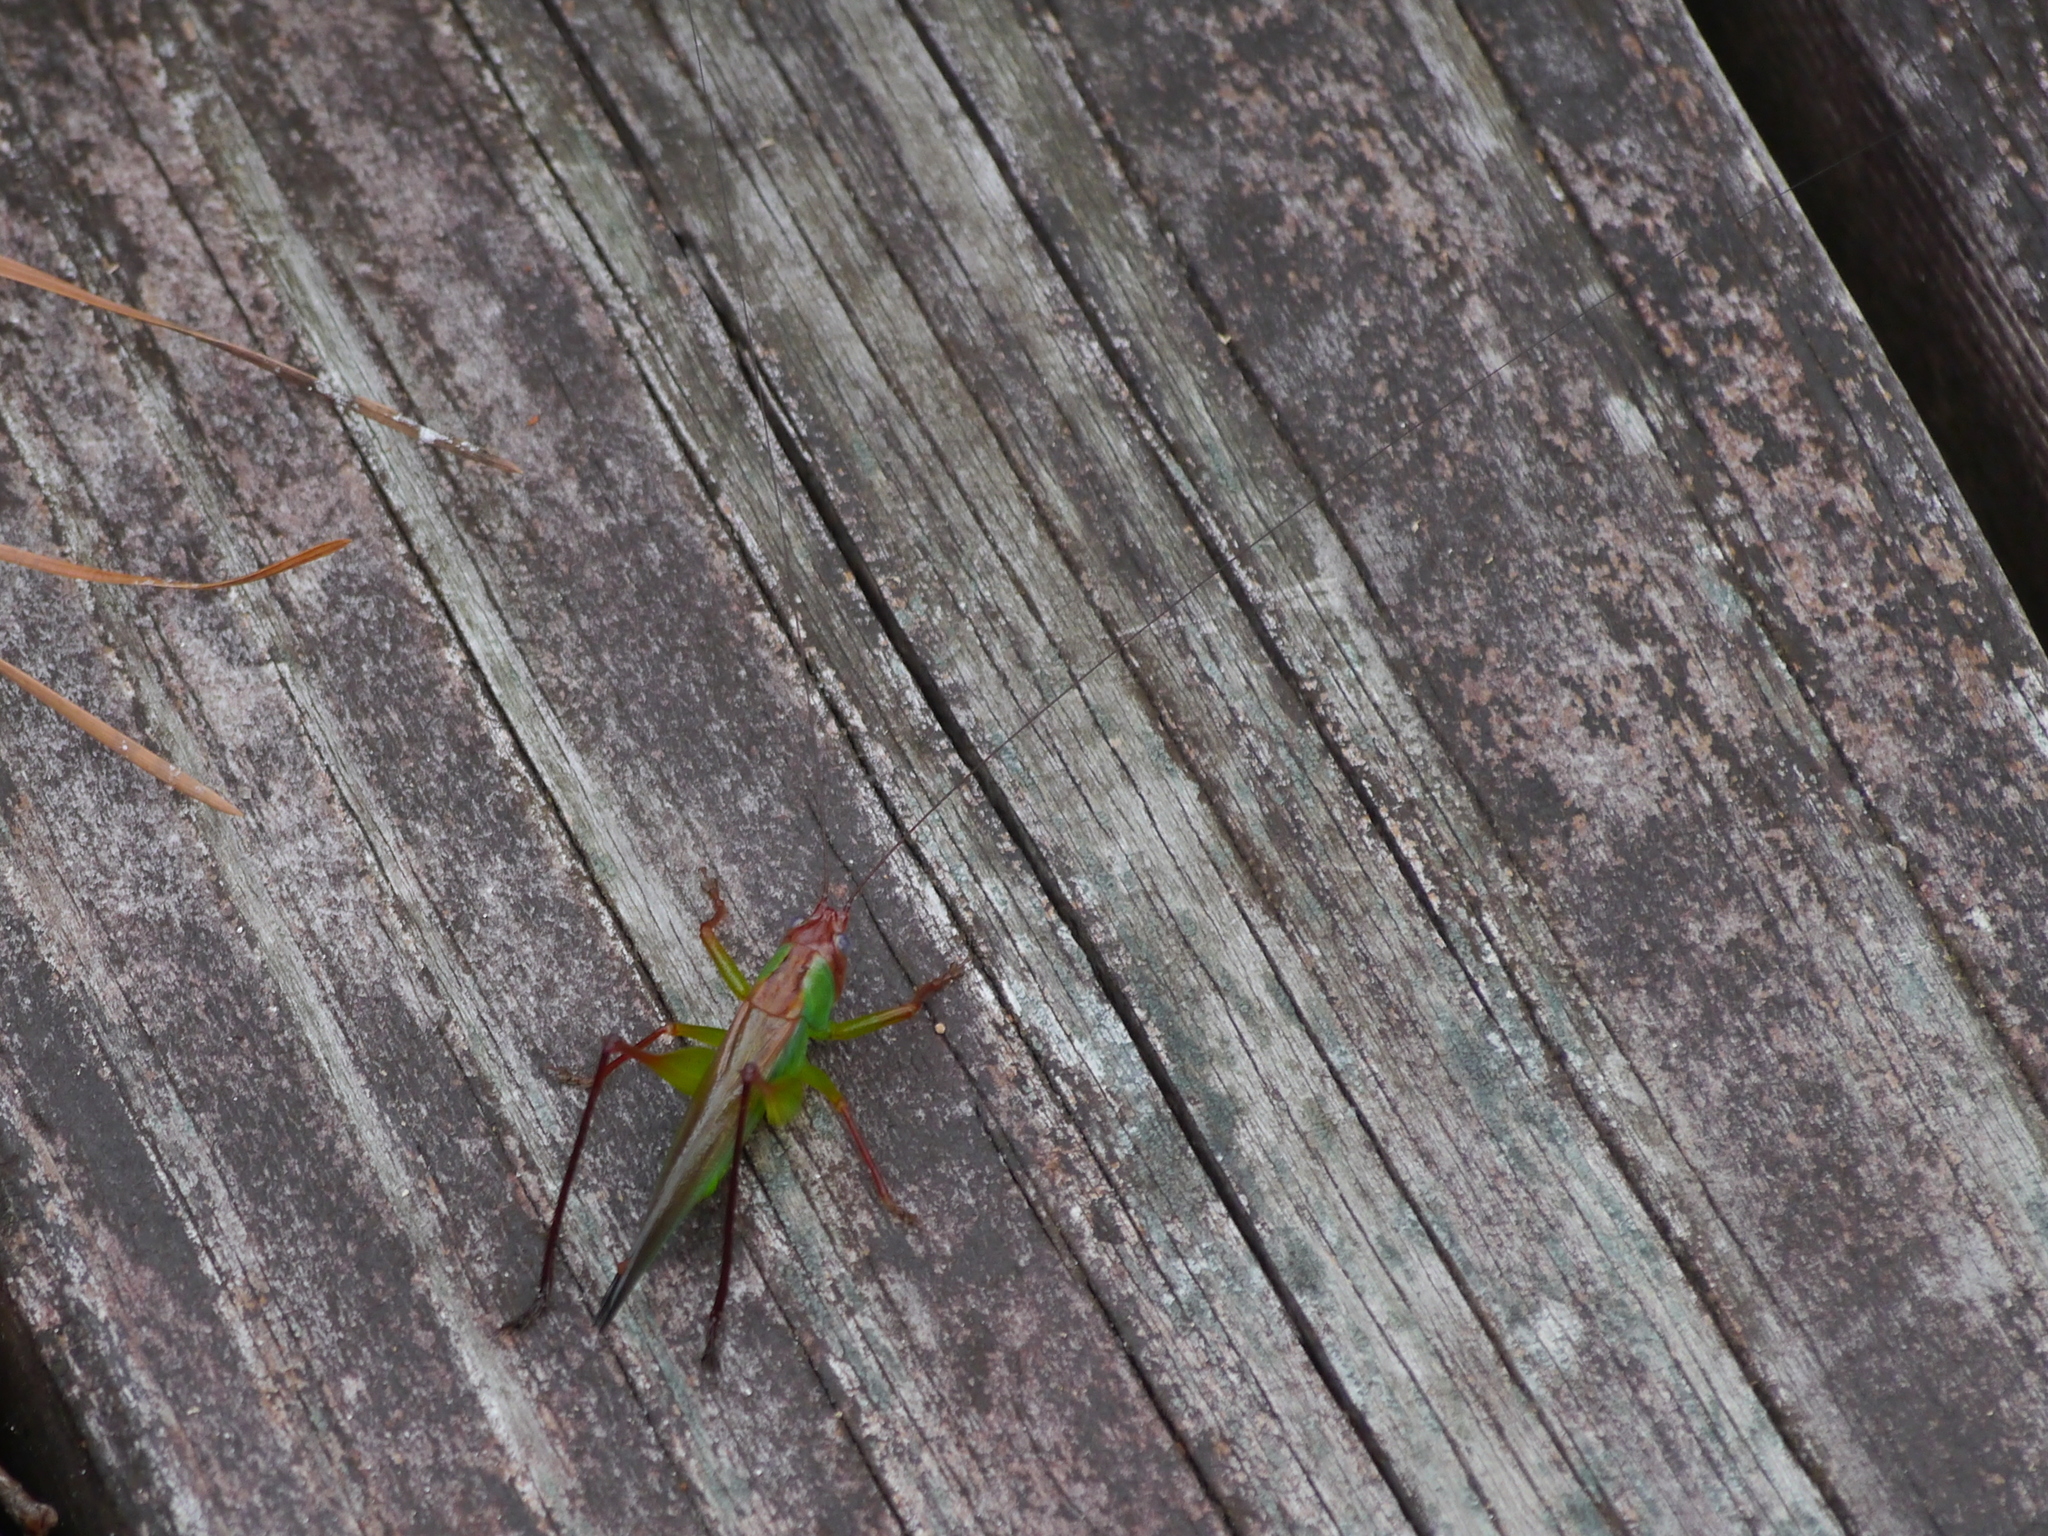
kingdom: Animalia
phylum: Arthropoda
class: Insecta
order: Orthoptera
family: Tettigoniidae
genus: Orchelimum
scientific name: Orchelimum pulchellum
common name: Handsome meadow katydid
